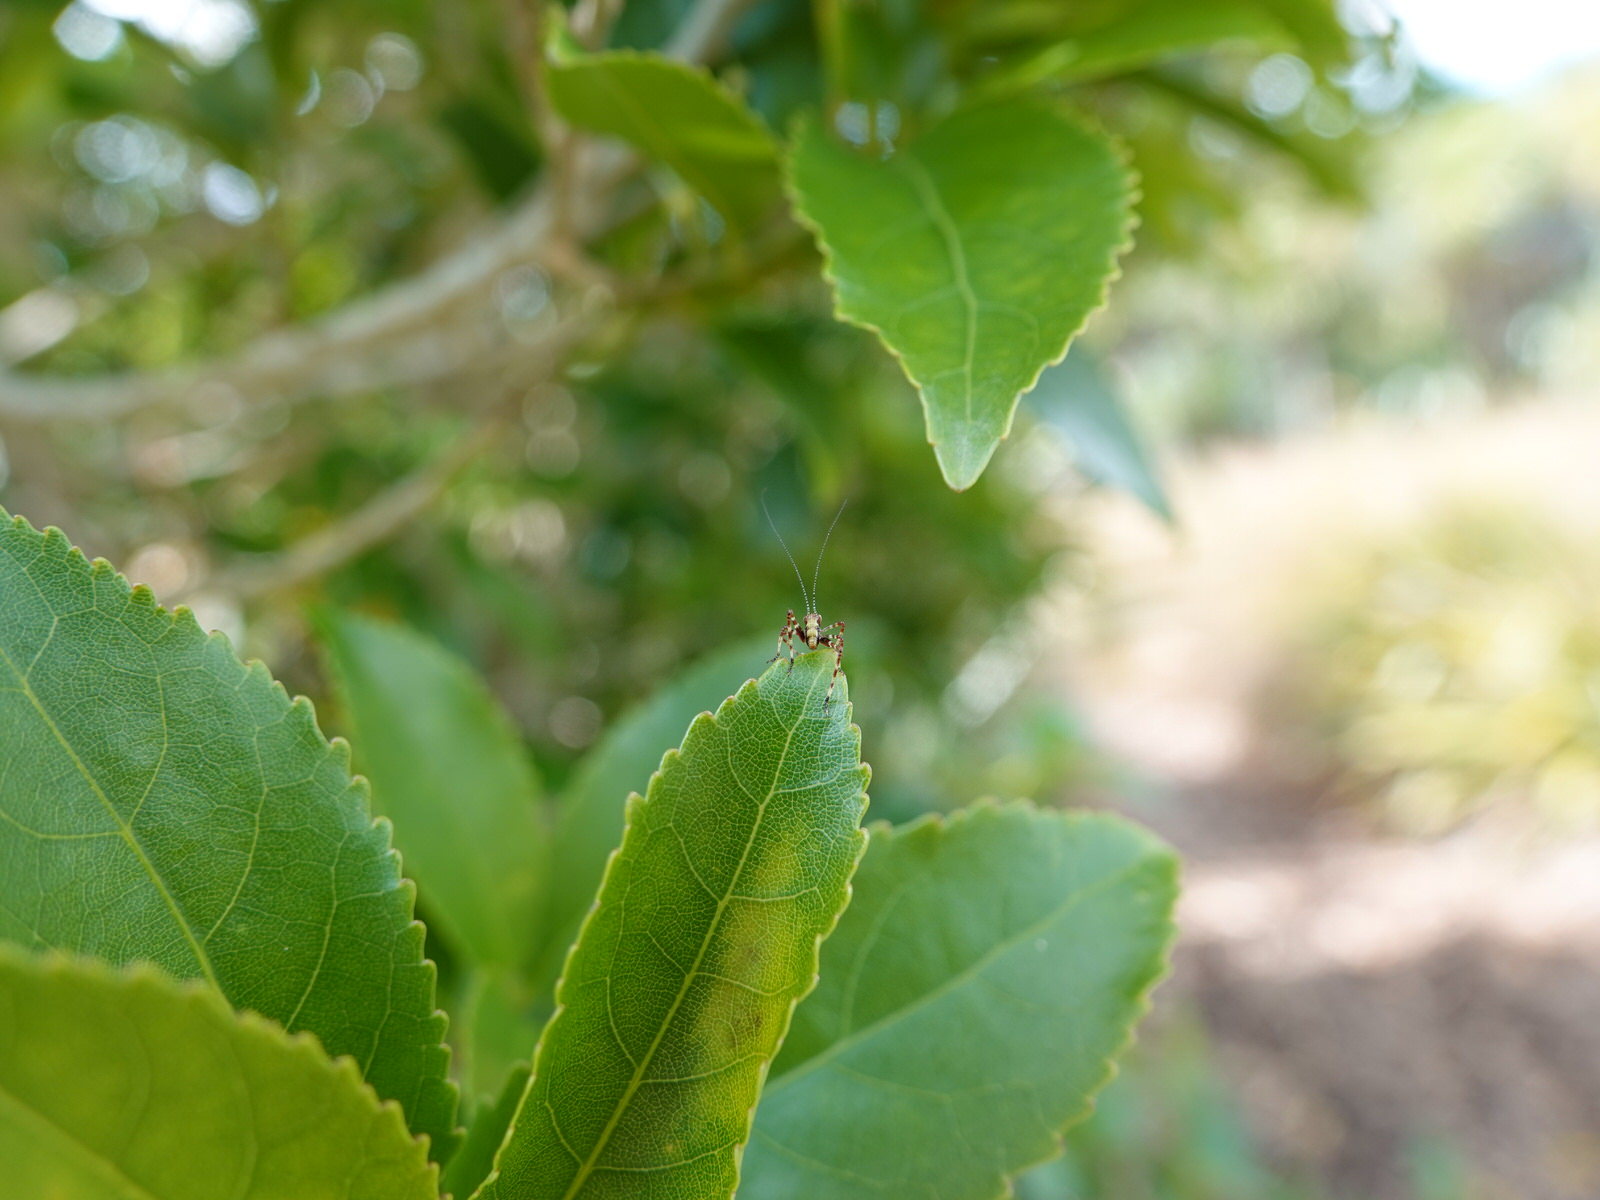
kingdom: Animalia
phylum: Arthropoda
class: Insecta
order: Orthoptera
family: Tettigoniidae
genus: Caedicia
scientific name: Caedicia simplex
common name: Common garden katydid
